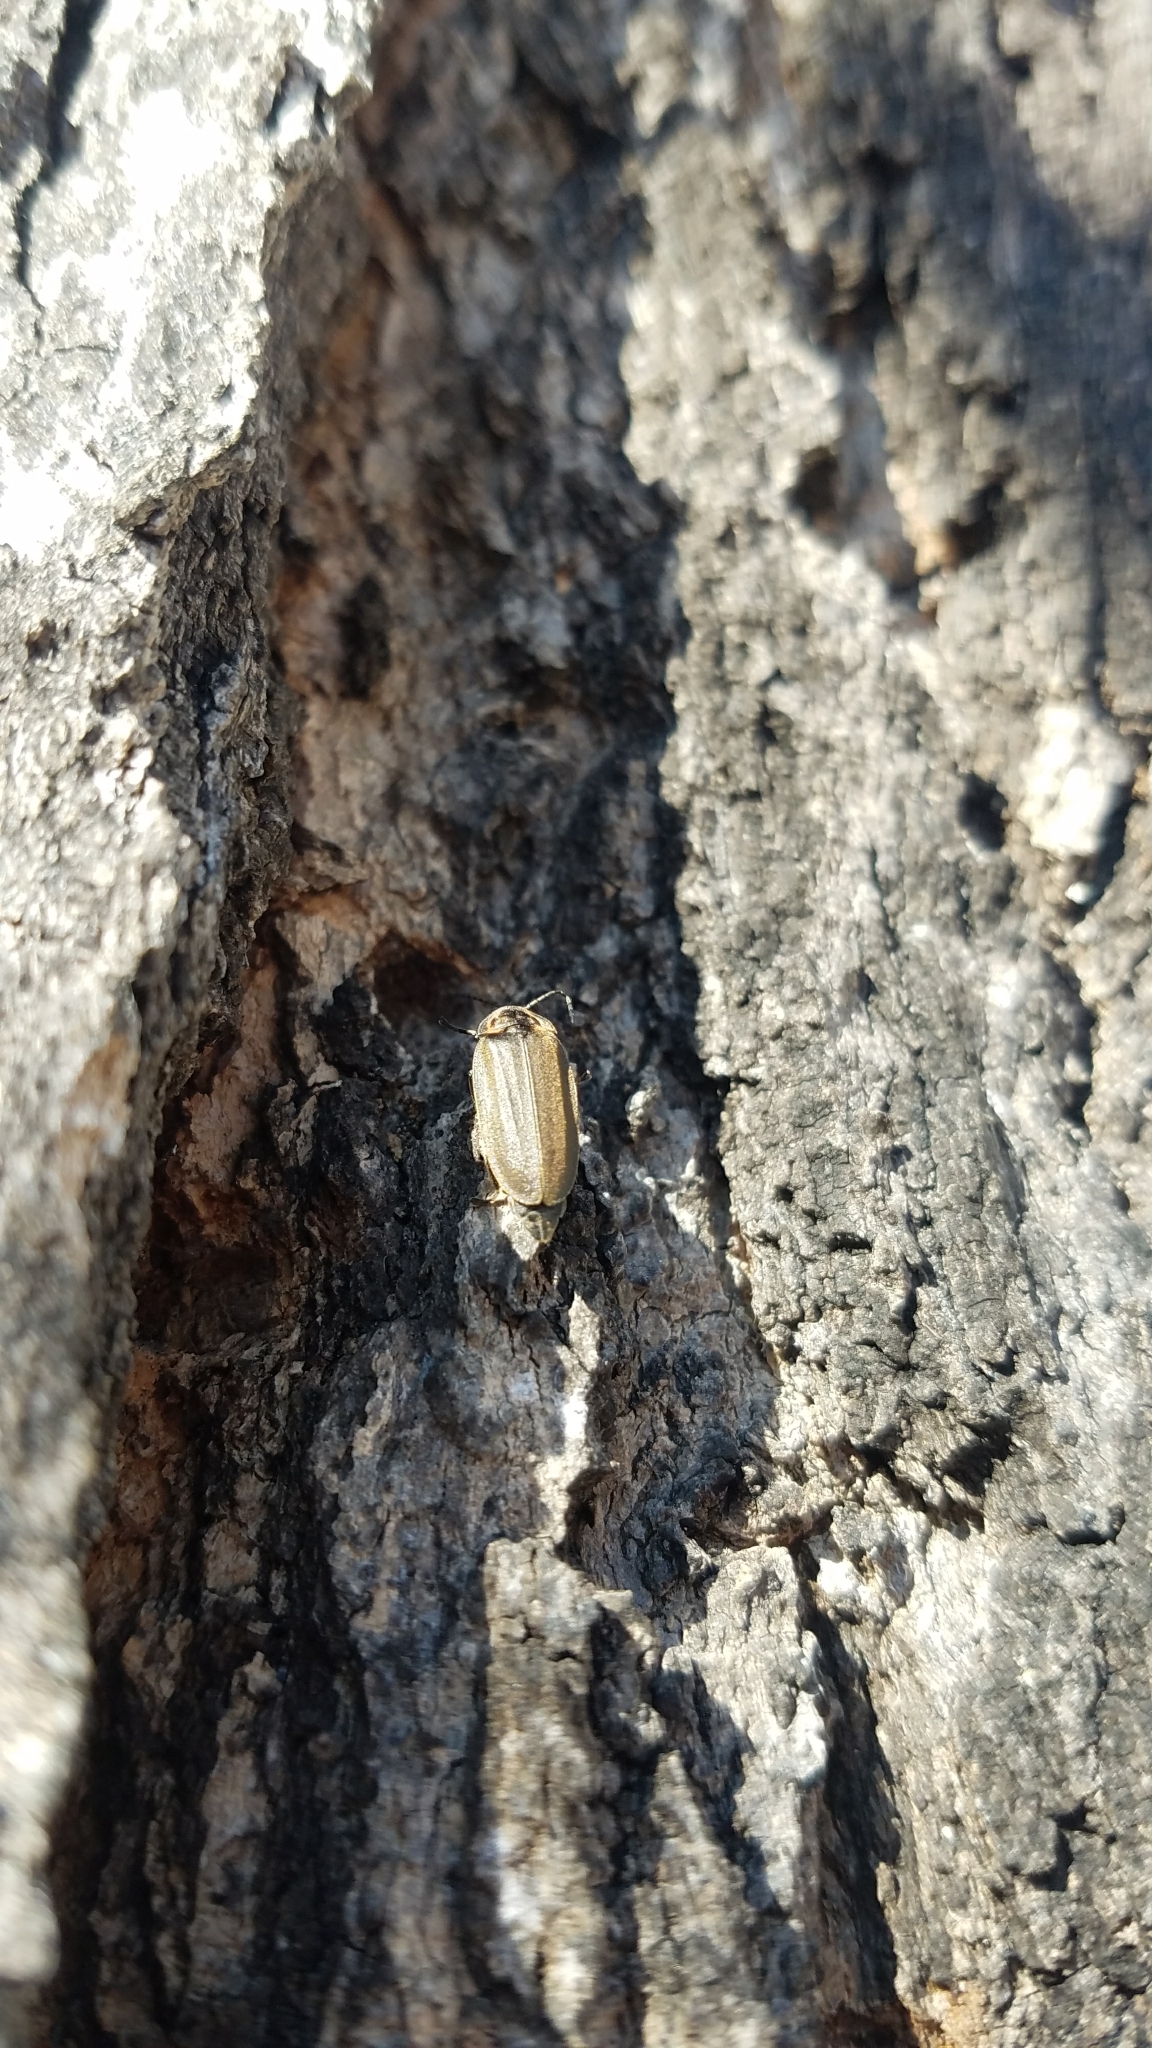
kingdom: Animalia
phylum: Arthropoda
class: Insecta
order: Coleoptera
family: Lampyridae
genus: Photinus
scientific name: Photinus corrusca
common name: Winter firefly
